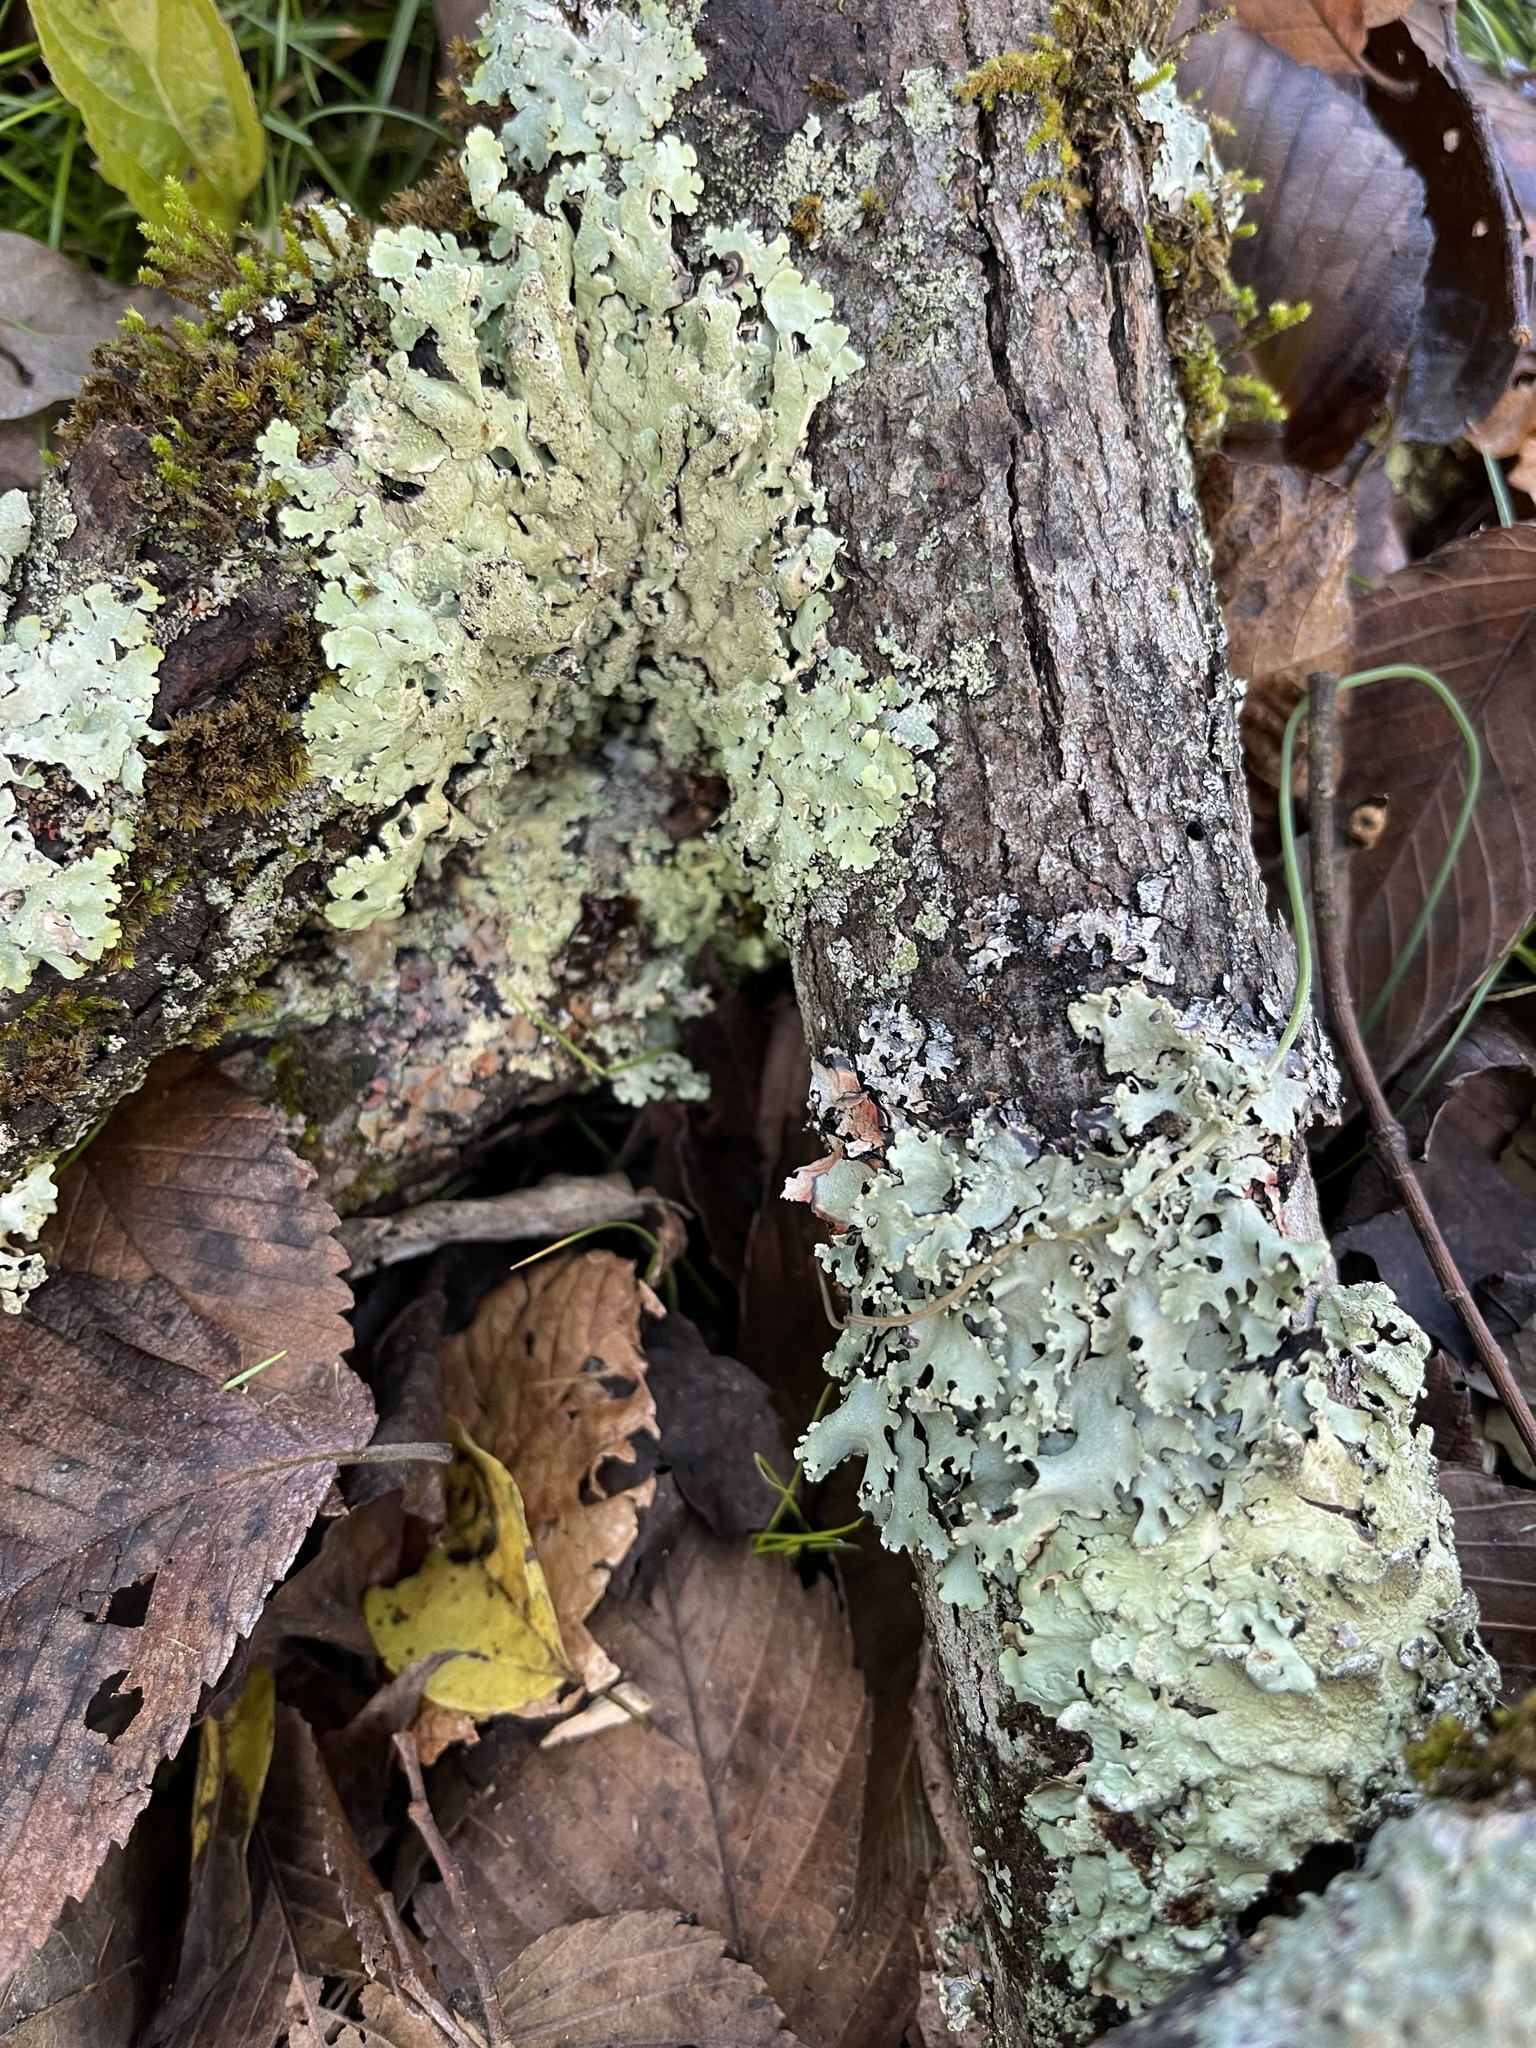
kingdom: Fungi
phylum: Ascomycota
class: Lecanoromycetes
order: Lecanorales
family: Parmeliaceae
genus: Flavoparmelia
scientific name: Flavoparmelia caperata
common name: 40-mile per hour lichen
